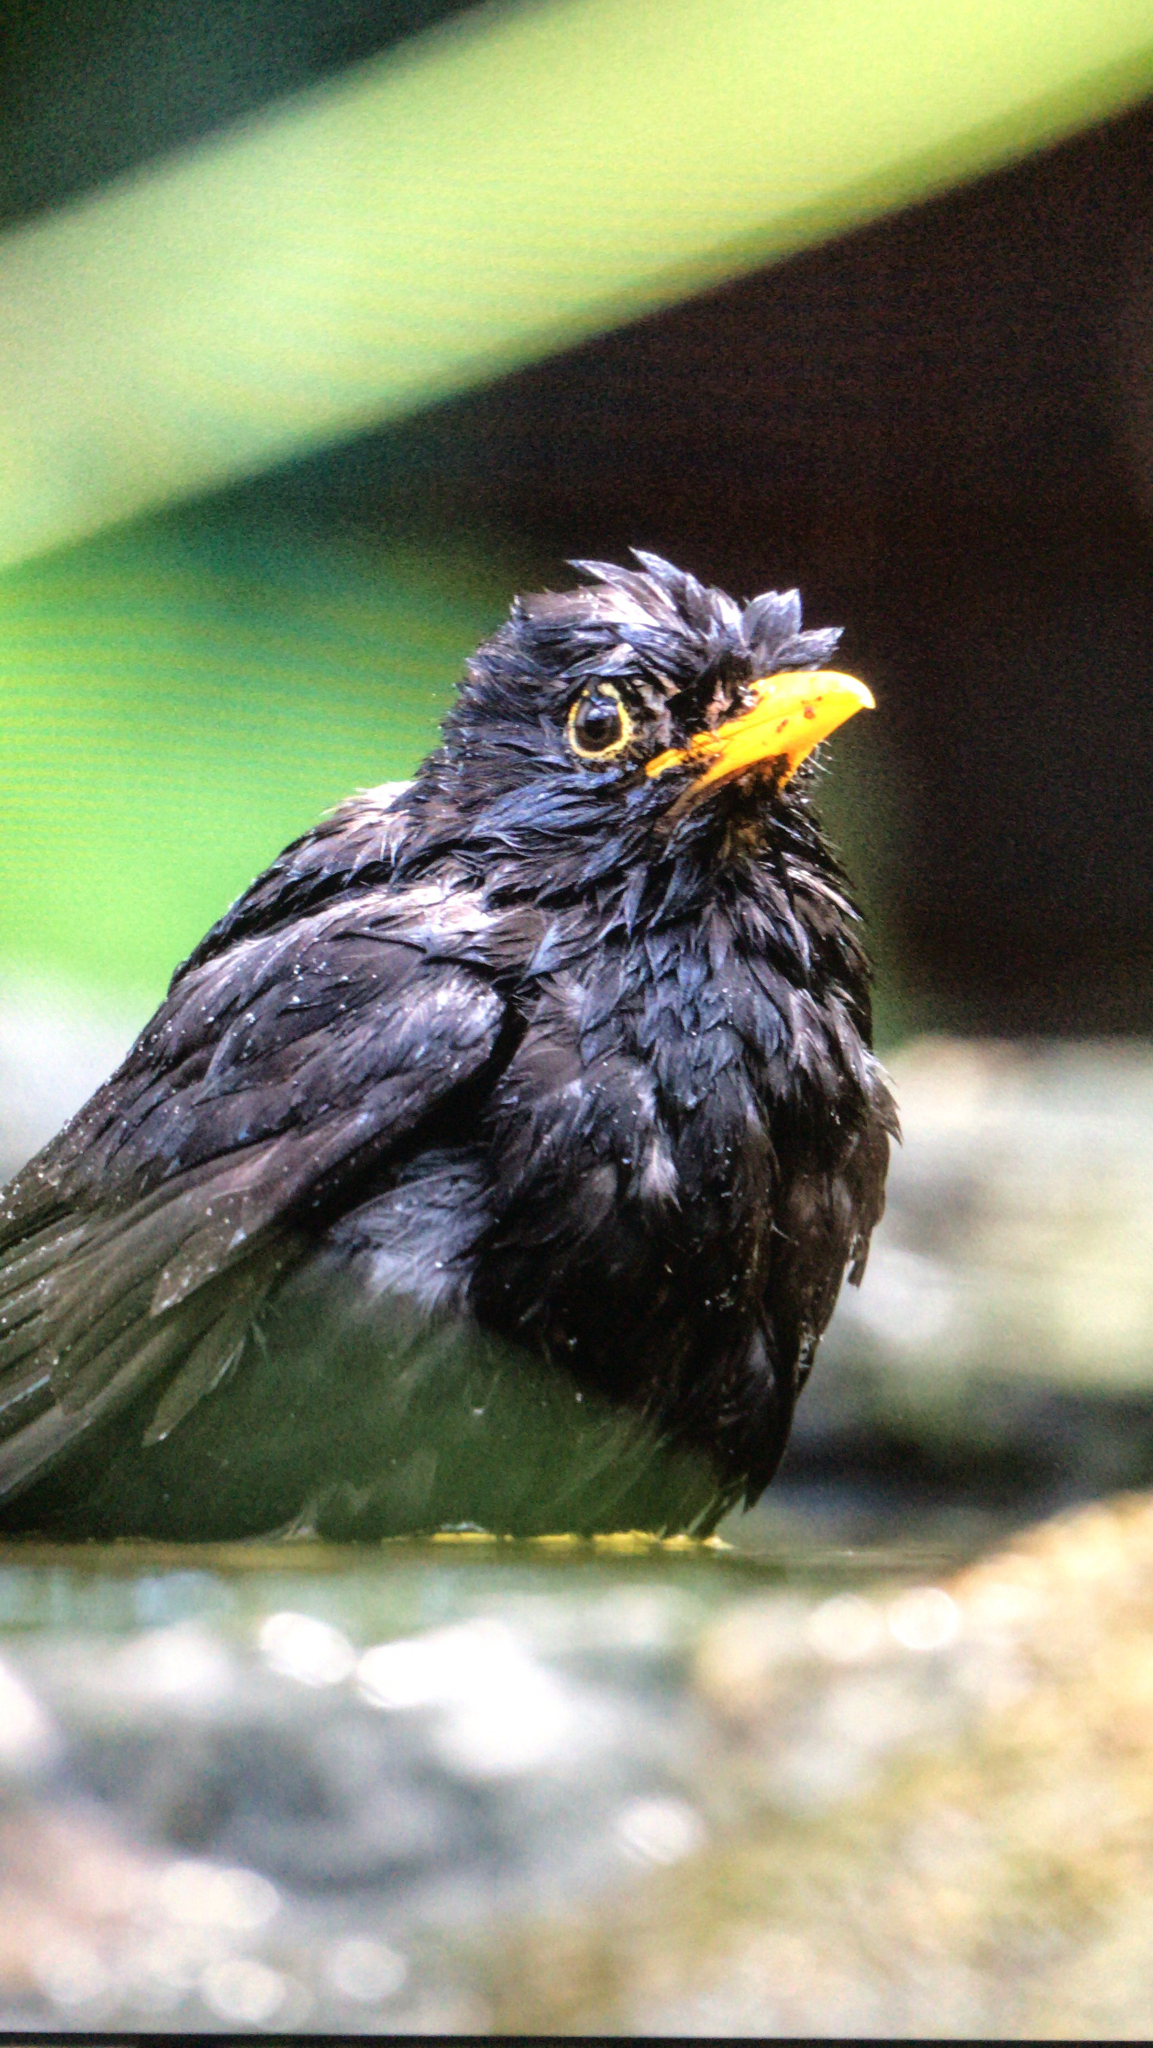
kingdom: Animalia
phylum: Chordata
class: Aves
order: Passeriformes
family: Turdidae
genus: Turdus
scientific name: Turdus merula
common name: Common blackbird
